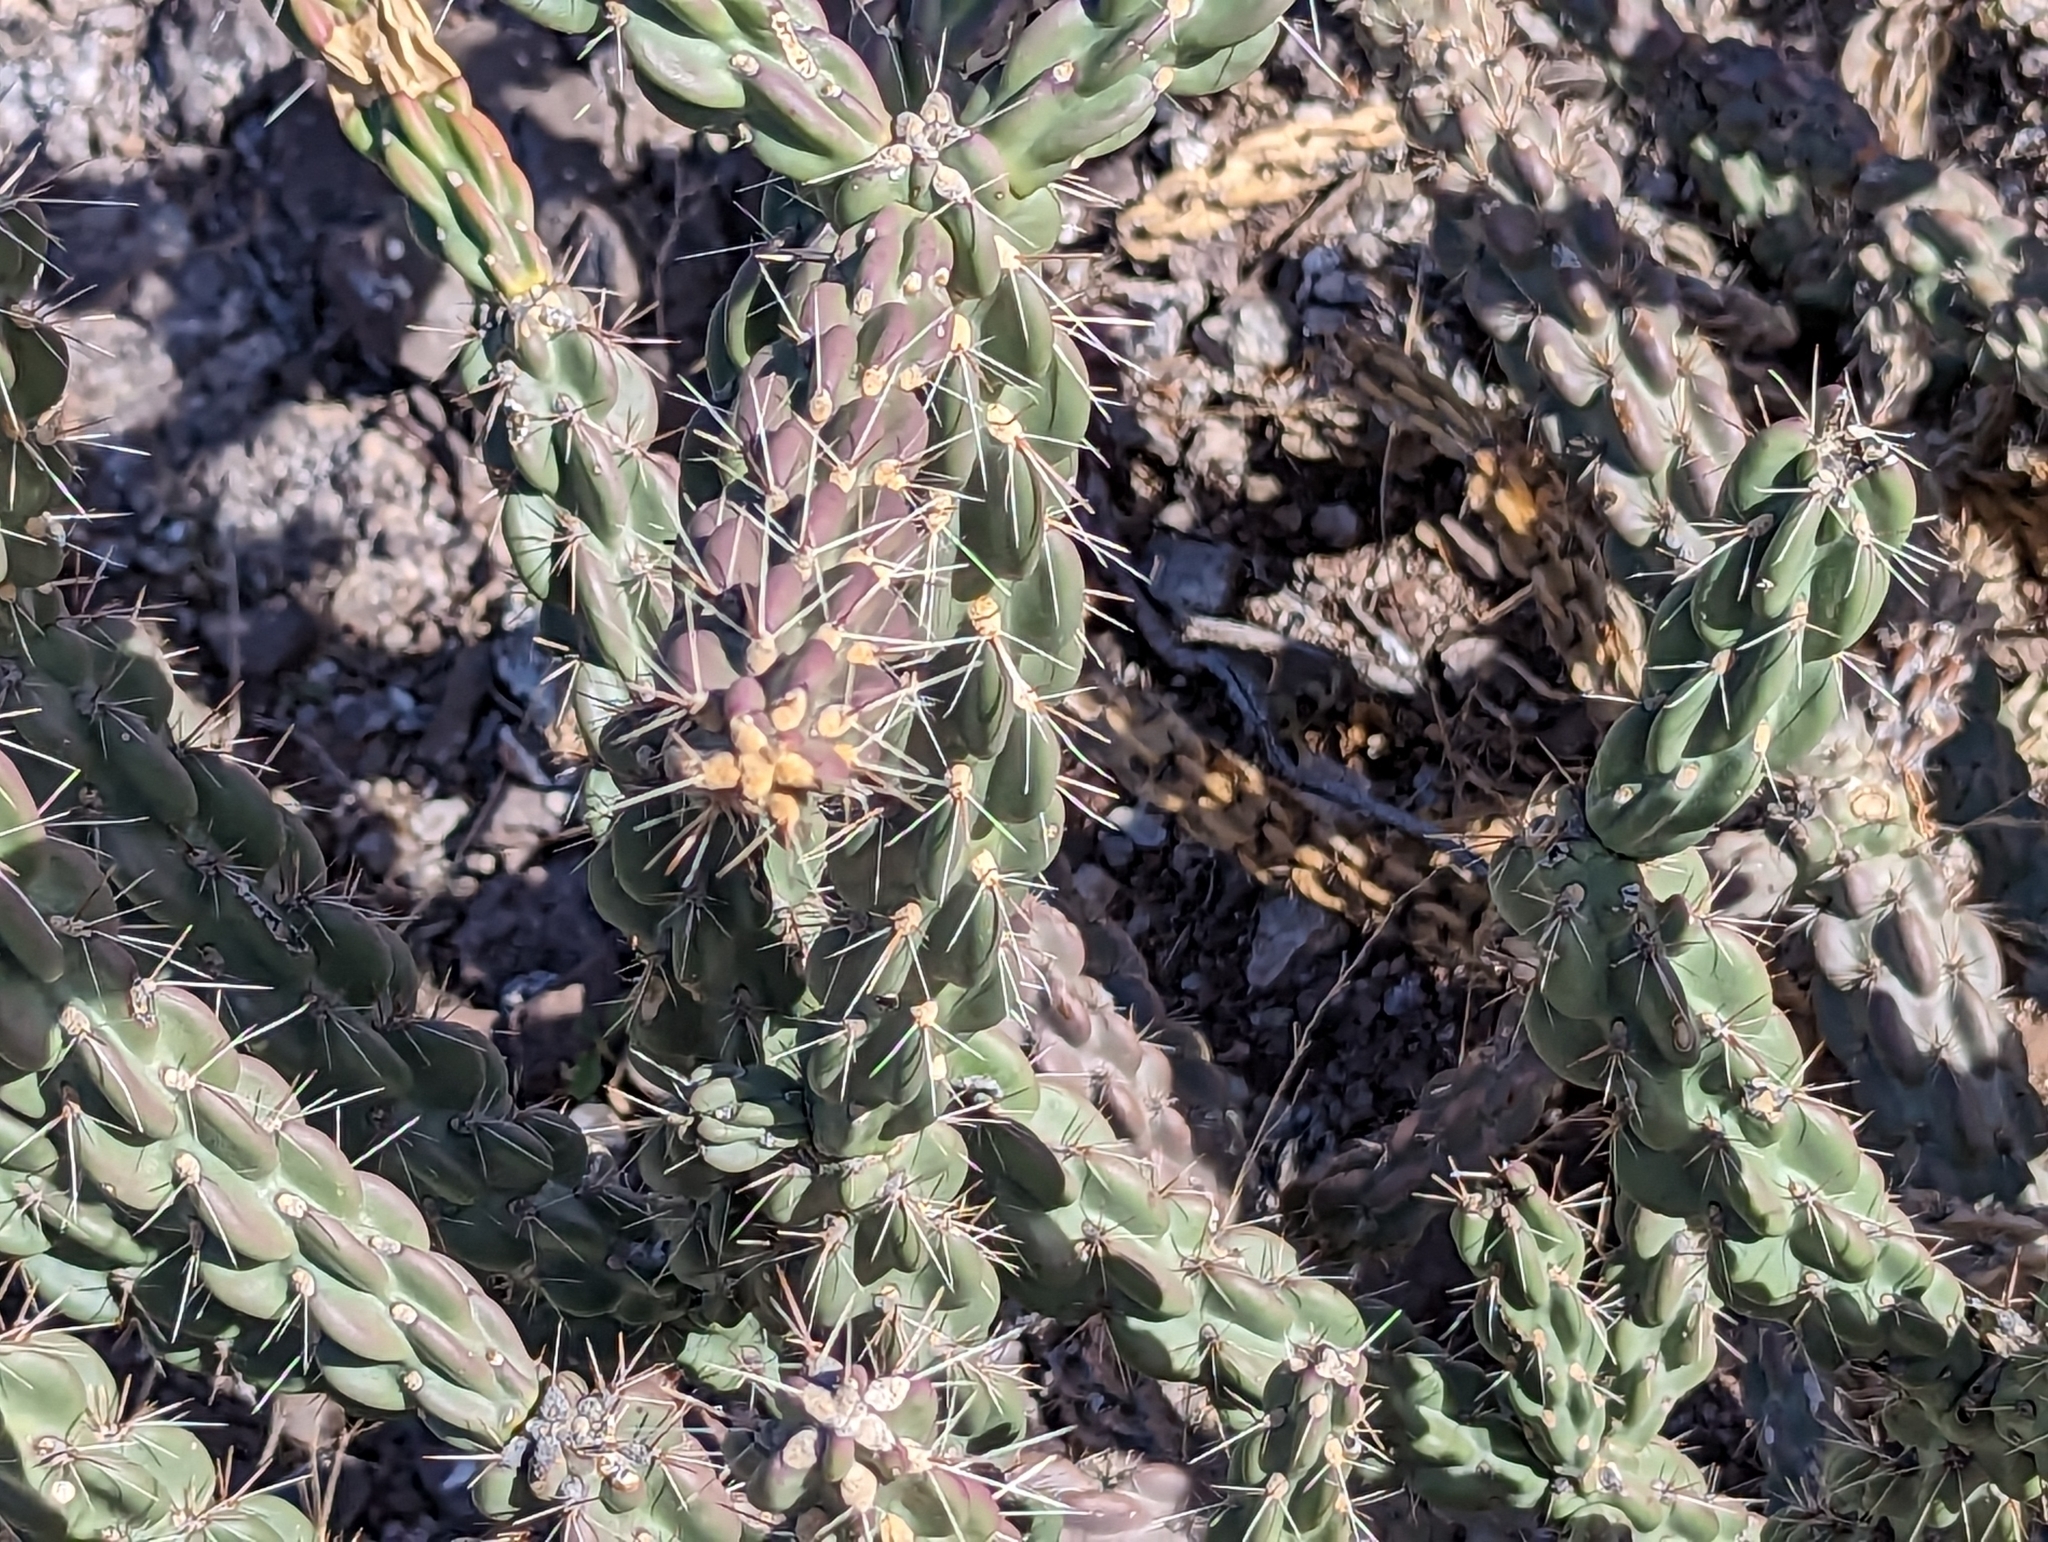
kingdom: Plantae
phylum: Tracheophyta
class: Magnoliopsida
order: Caryophyllales
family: Cactaceae
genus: Cylindropuntia
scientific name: Cylindropuntia imbricata
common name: Candelabrum cactus
